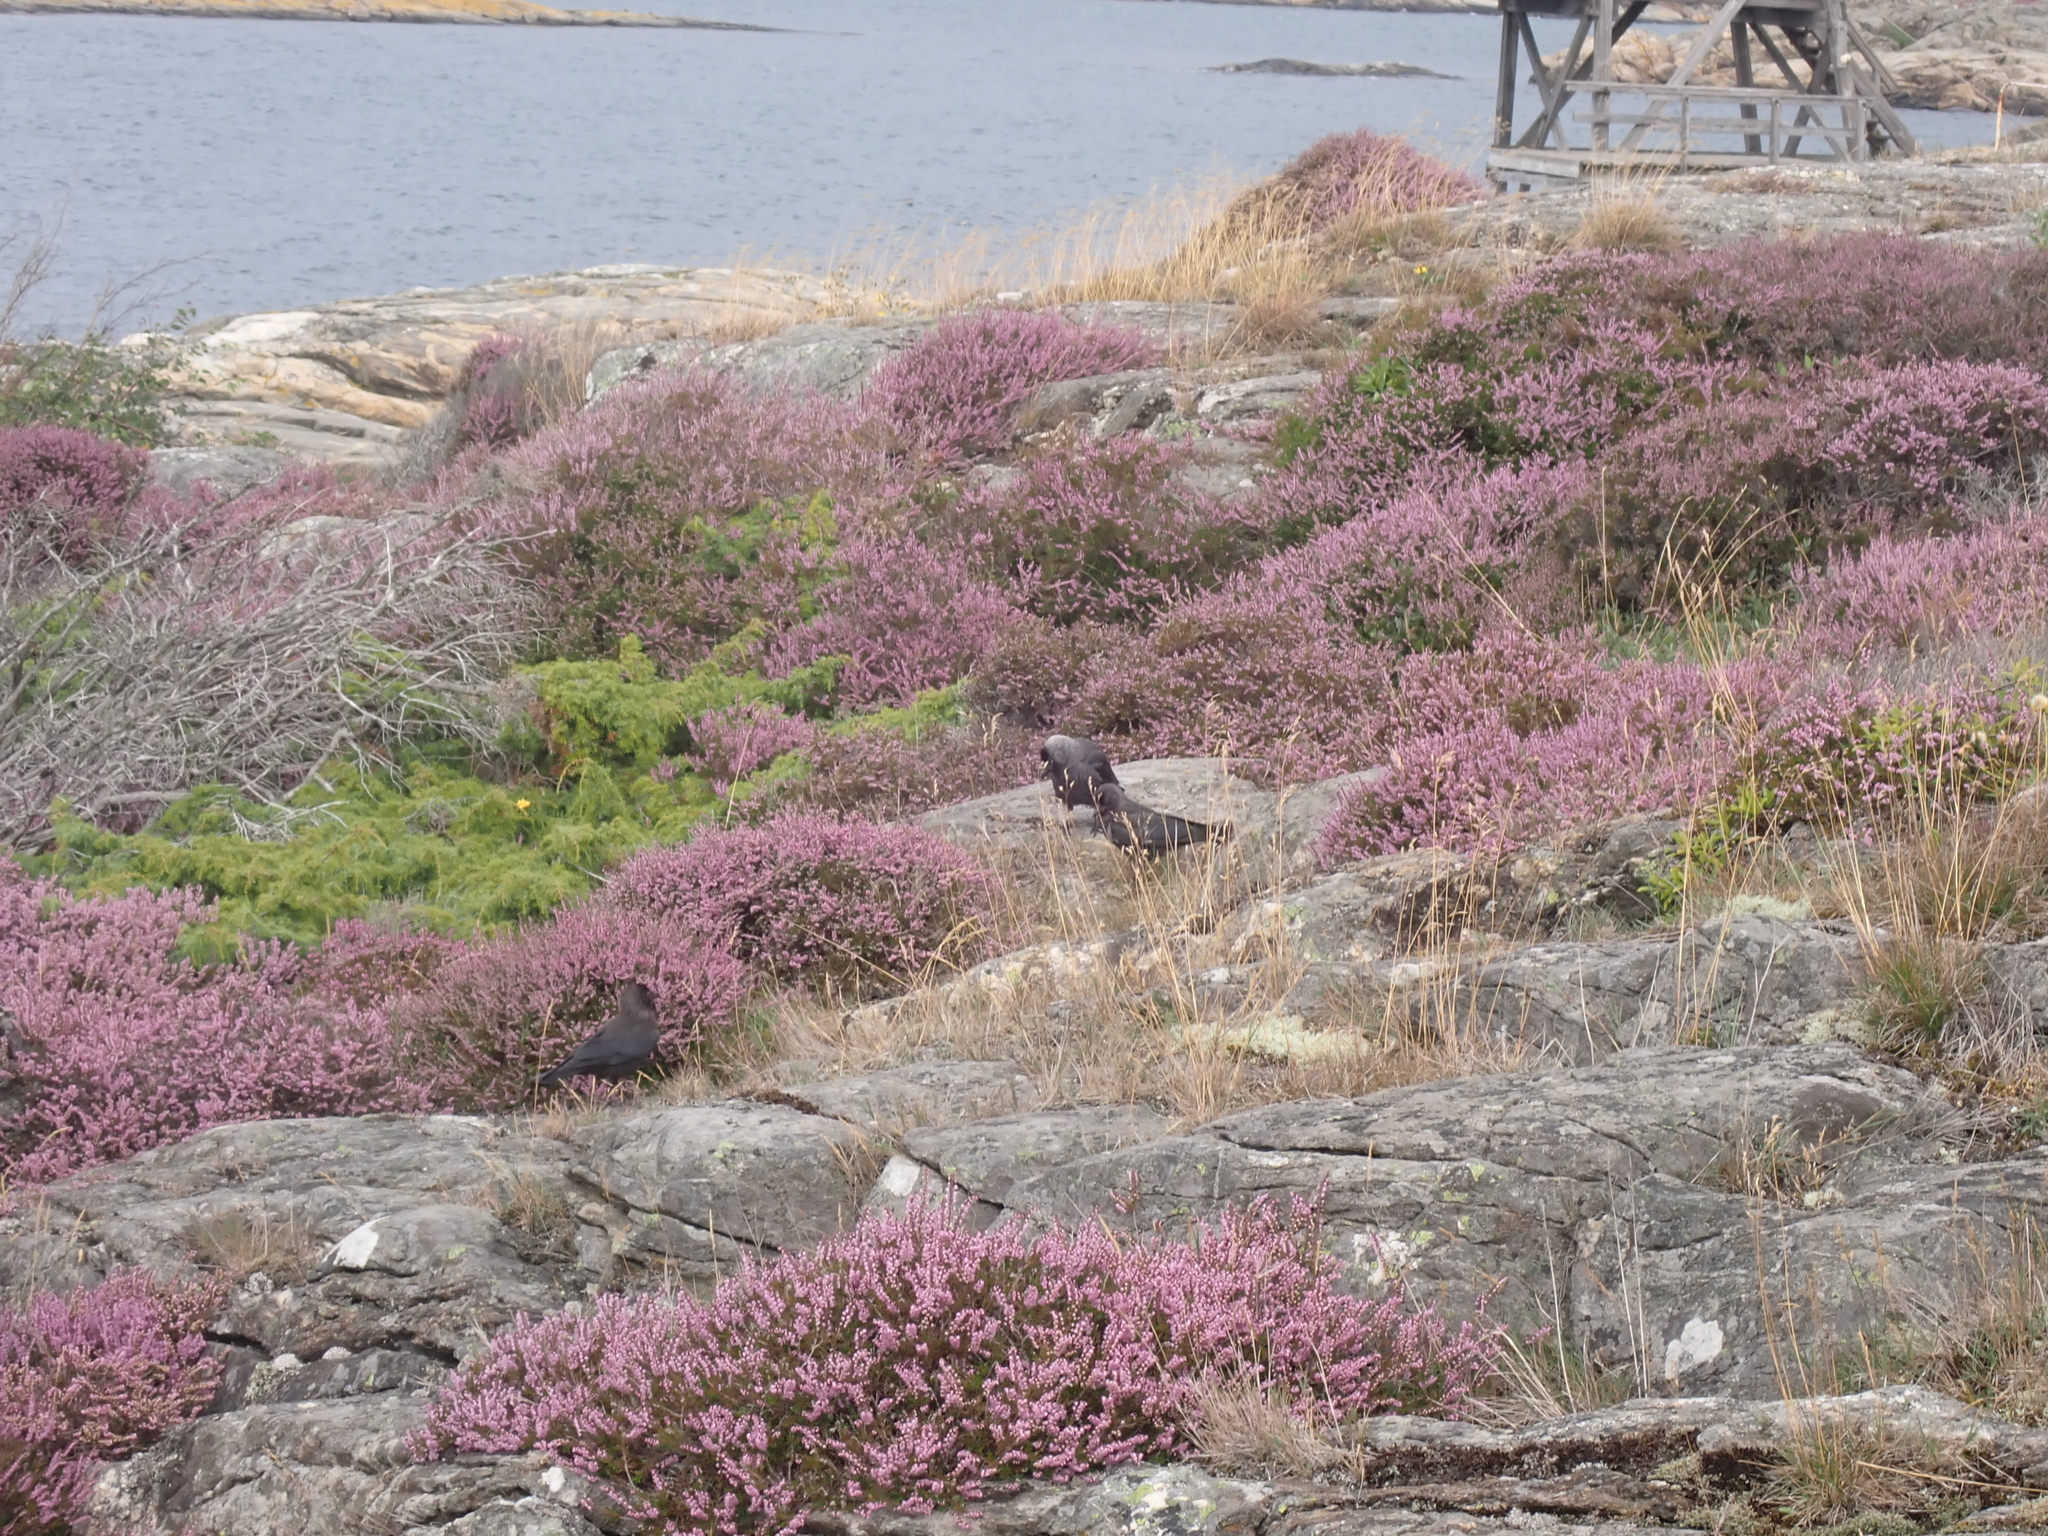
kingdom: Animalia
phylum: Chordata
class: Aves
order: Passeriformes
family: Corvidae
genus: Coloeus
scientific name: Coloeus monedula
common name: Western jackdaw
